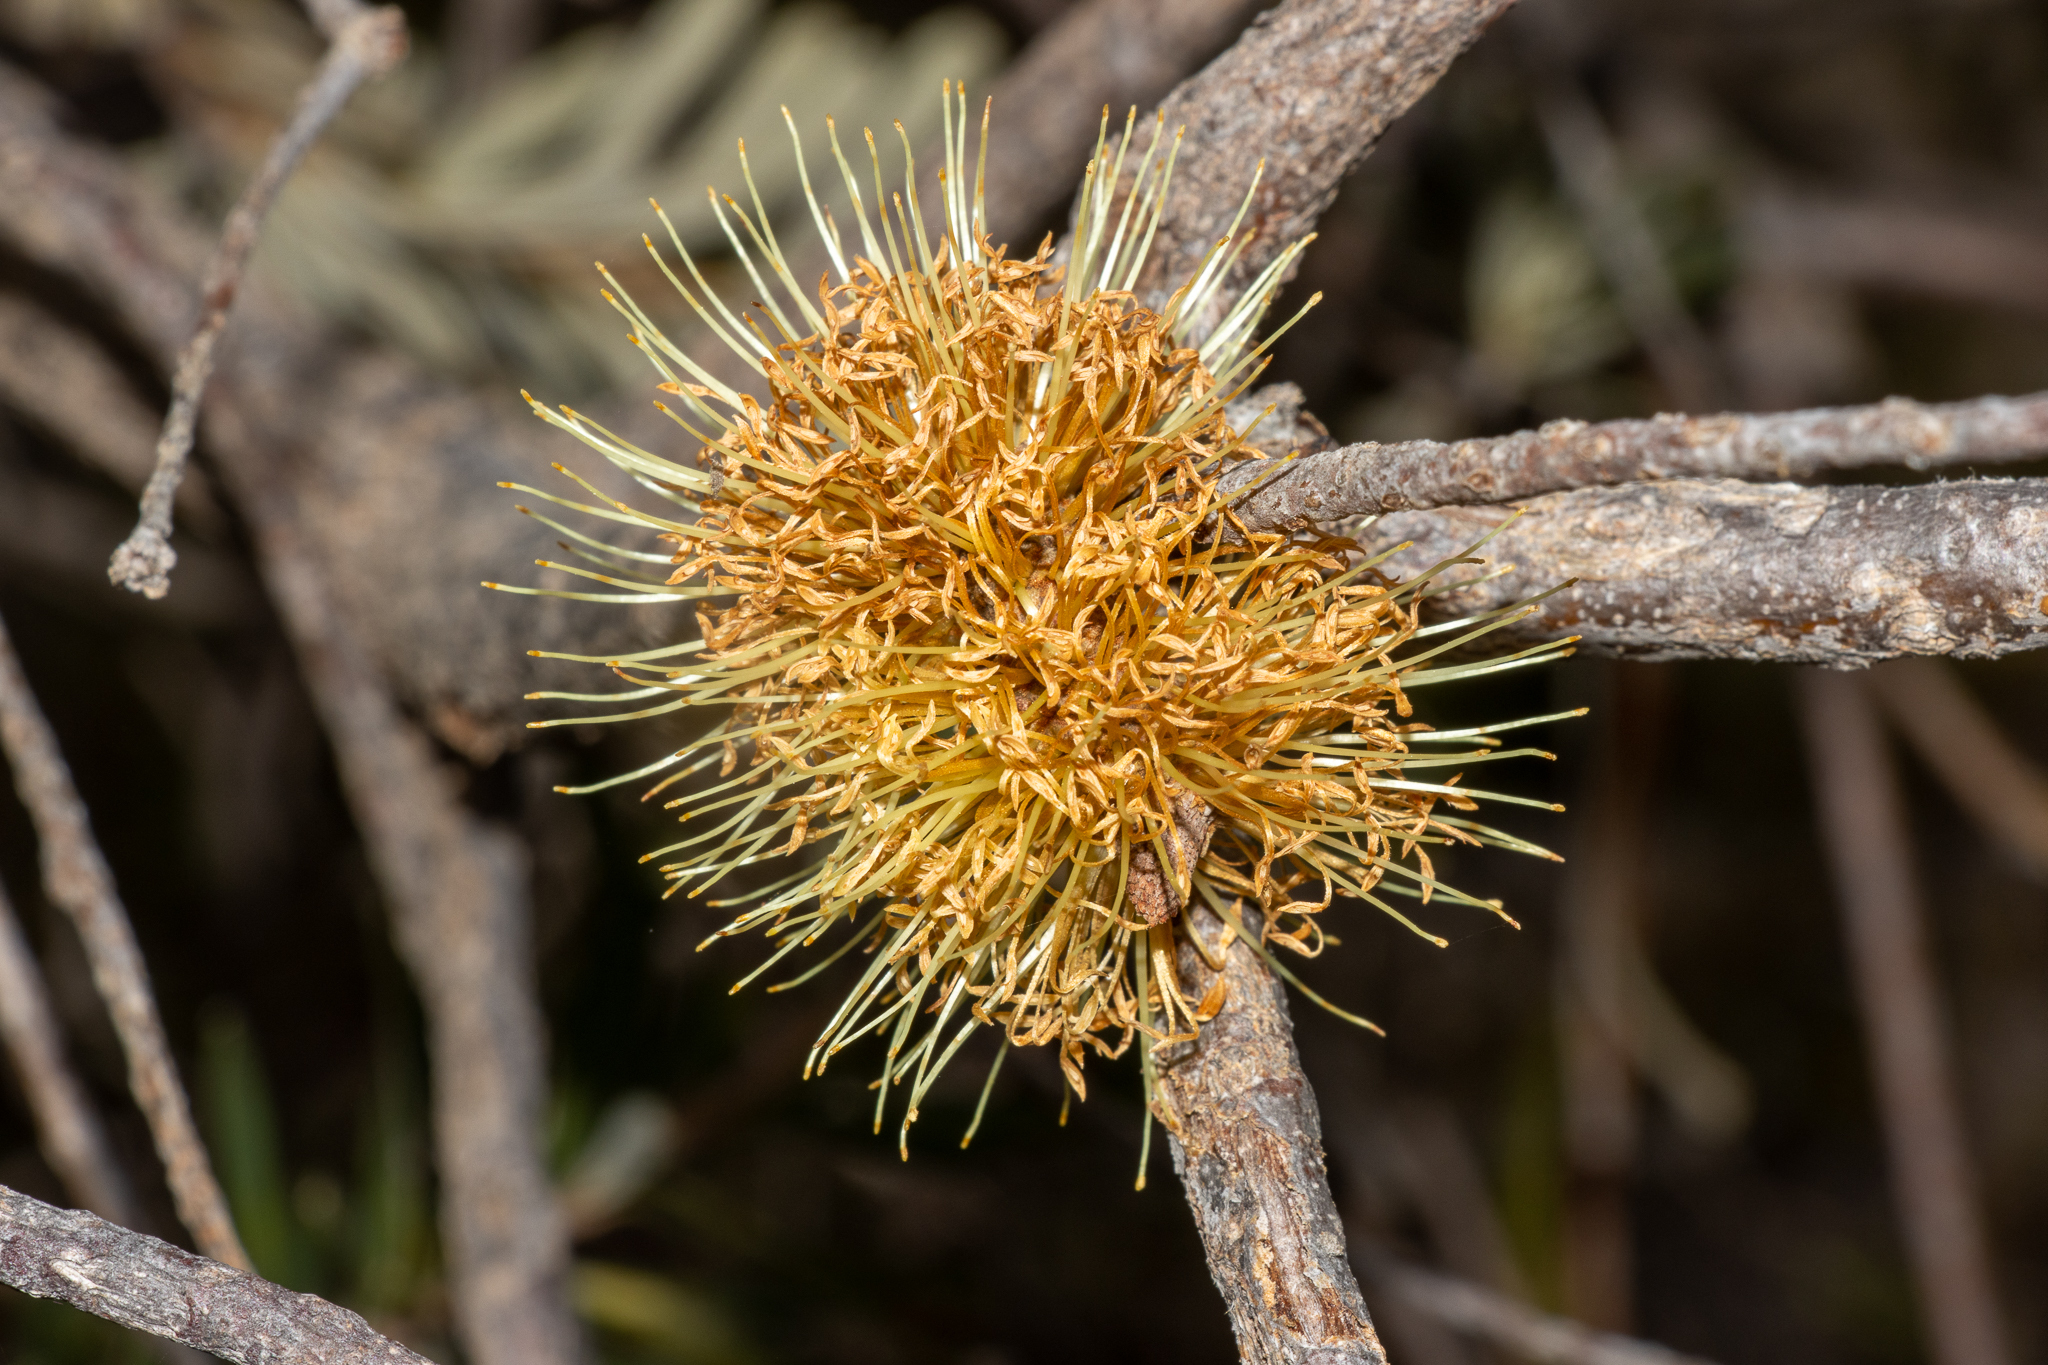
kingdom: Plantae
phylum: Tracheophyta
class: Magnoliopsida
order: Proteales
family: Proteaceae
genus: Banksia
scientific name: Banksia marginata
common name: Silver banksia
